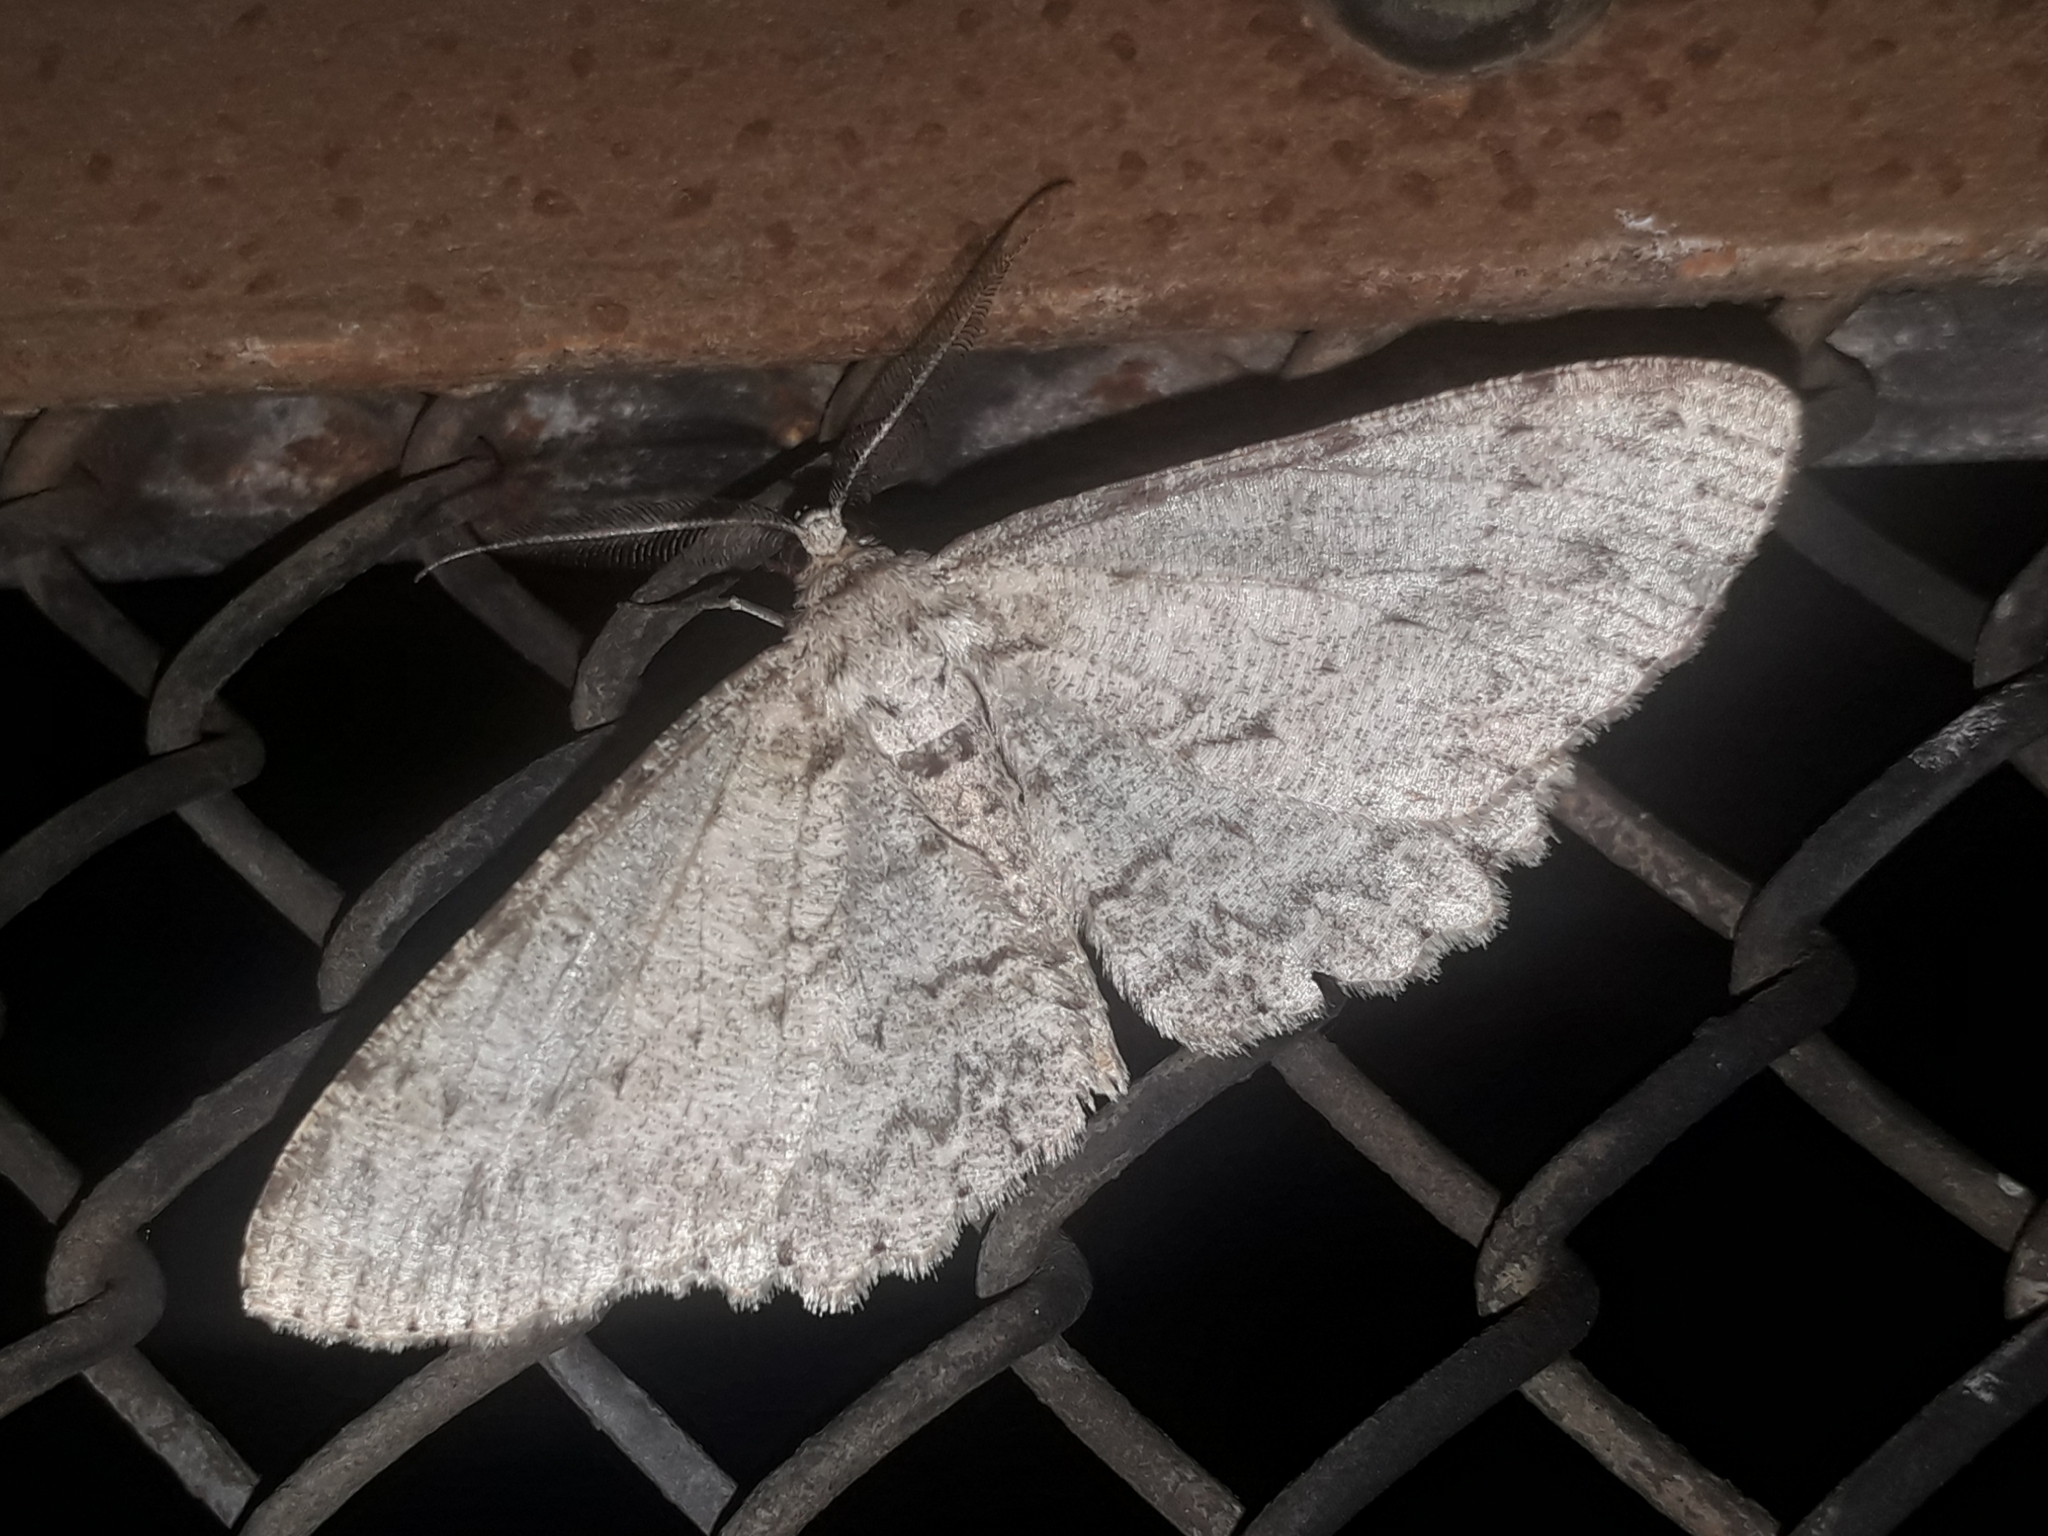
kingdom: Animalia
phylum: Arthropoda
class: Insecta
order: Lepidoptera
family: Geometridae
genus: Hypomecis
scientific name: Hypomecis punctinalis
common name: Pale oak beauty
